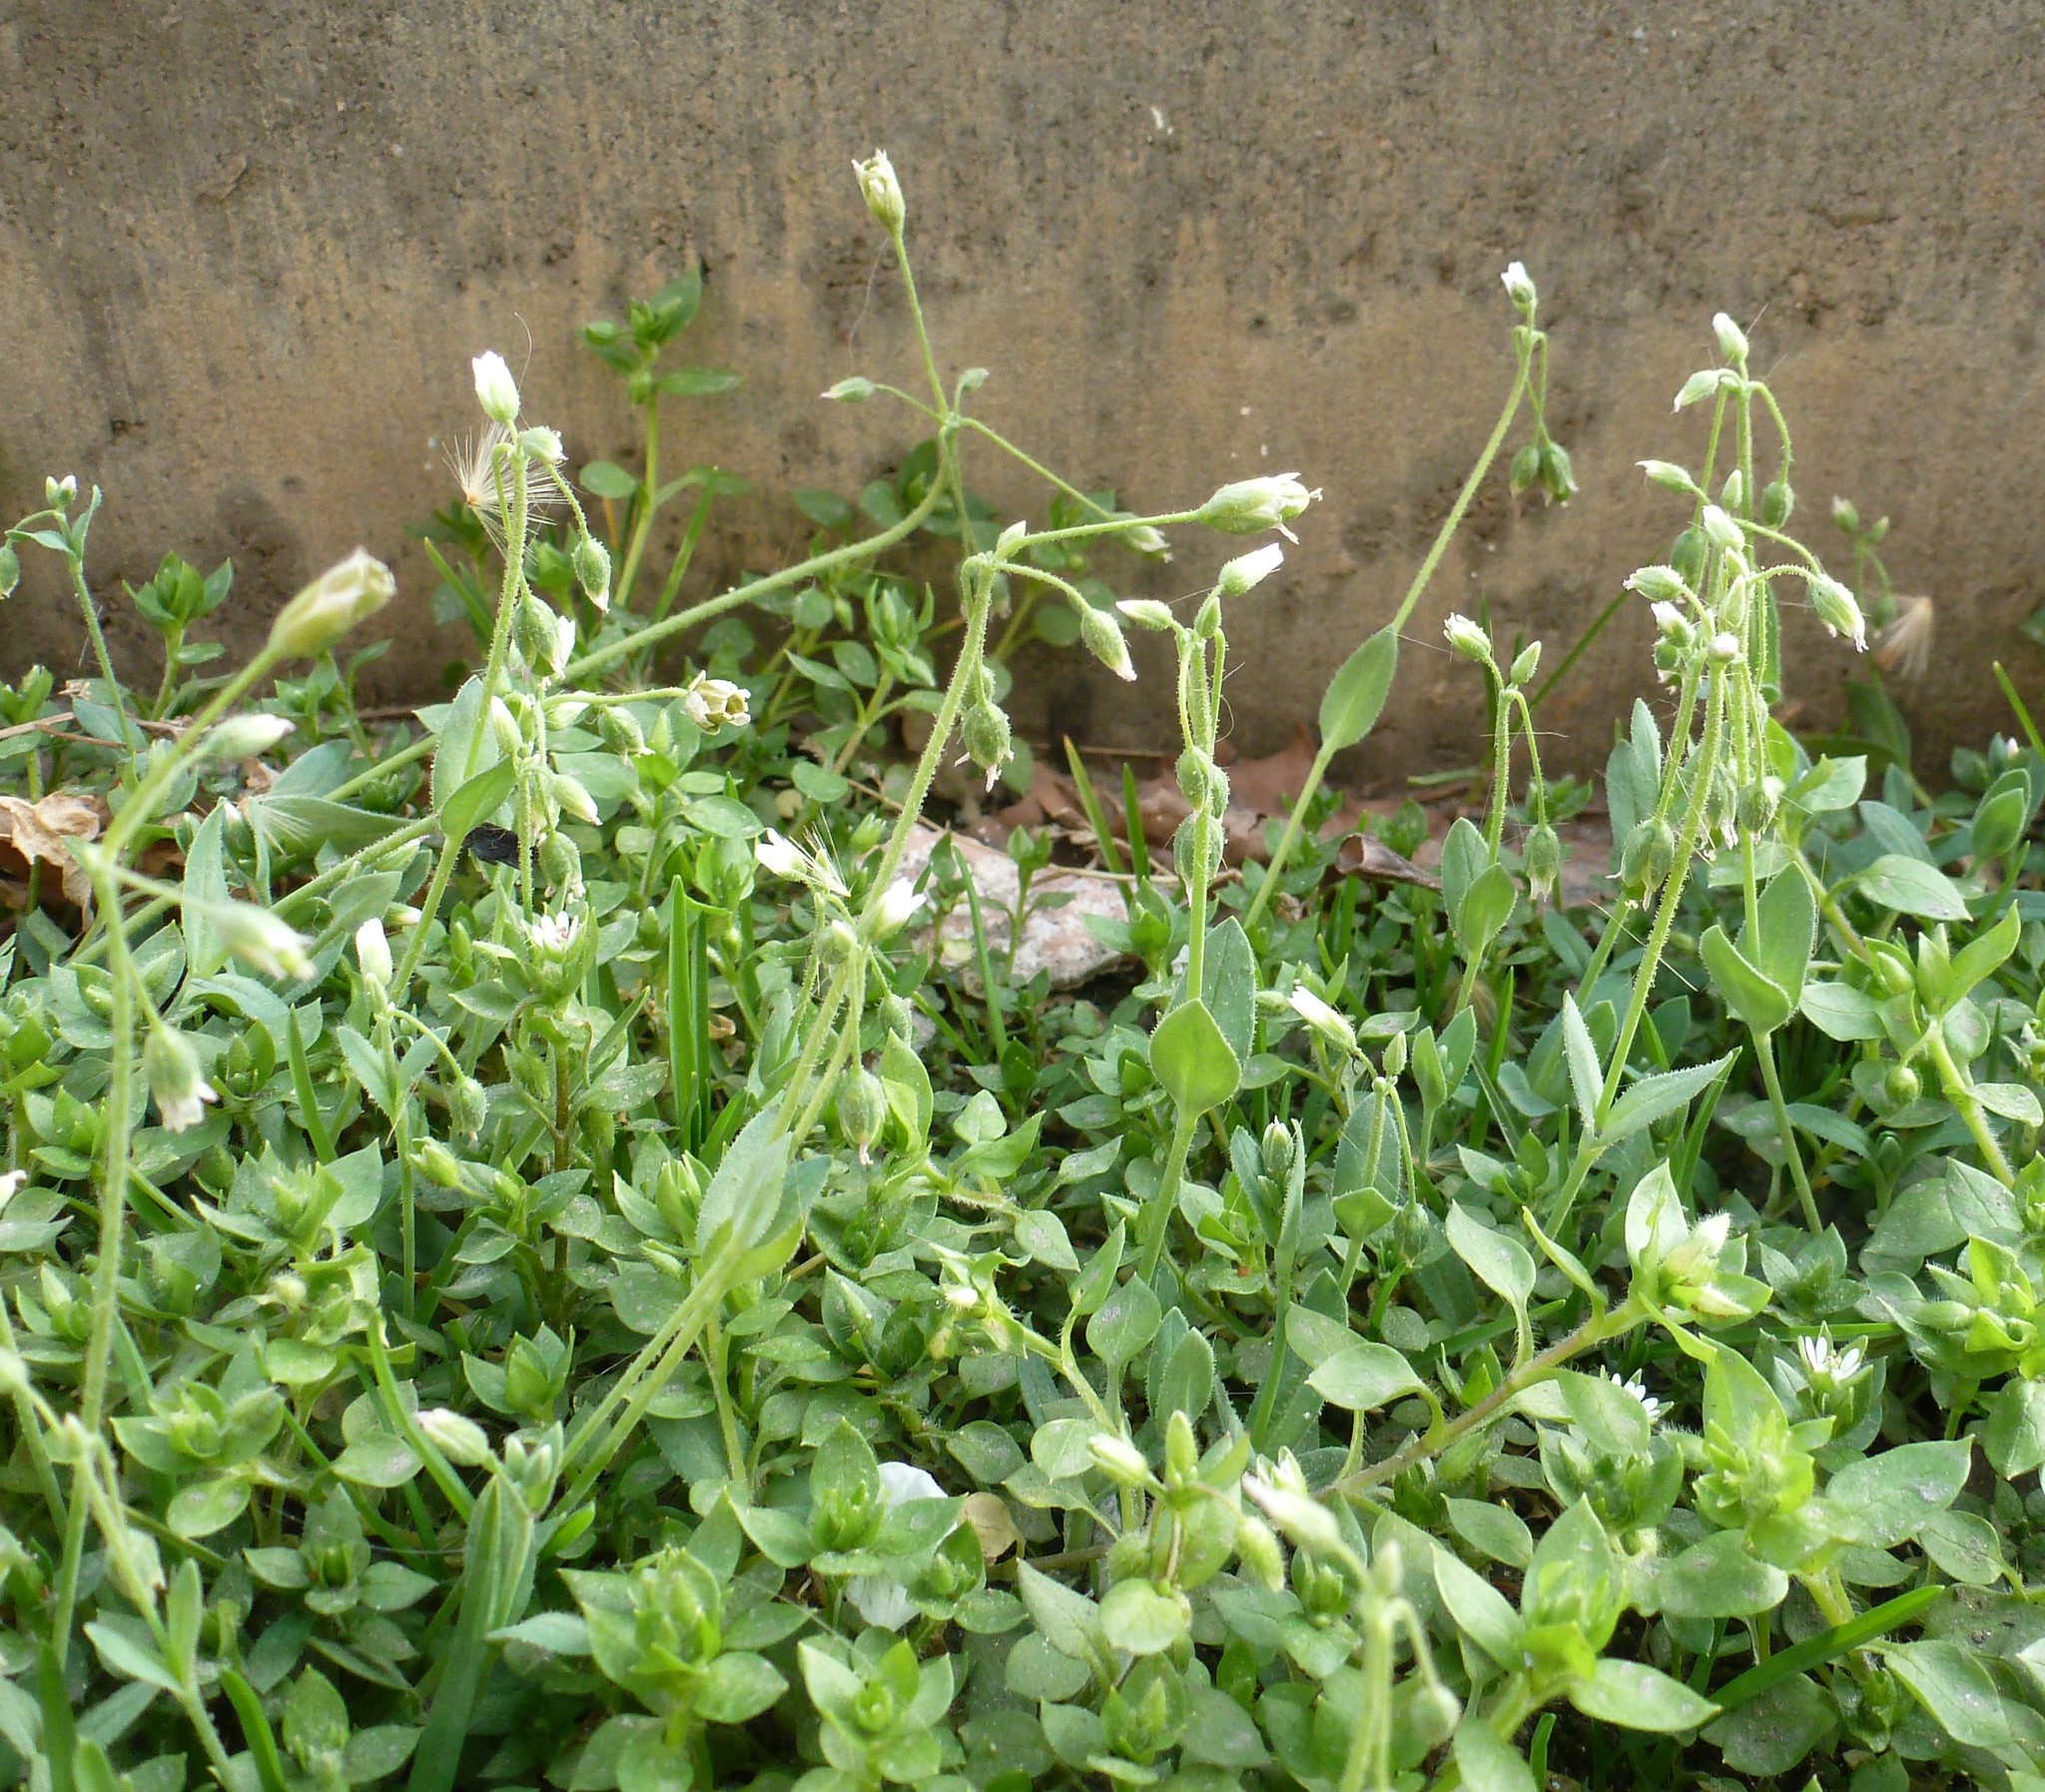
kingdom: Plantae
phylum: Tracheophyta
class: Magnoliopsida
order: Caryophyllales
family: Caryophyllaceae
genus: Holosteum
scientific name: Holosteum umbellatum
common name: Jagged chickweed
